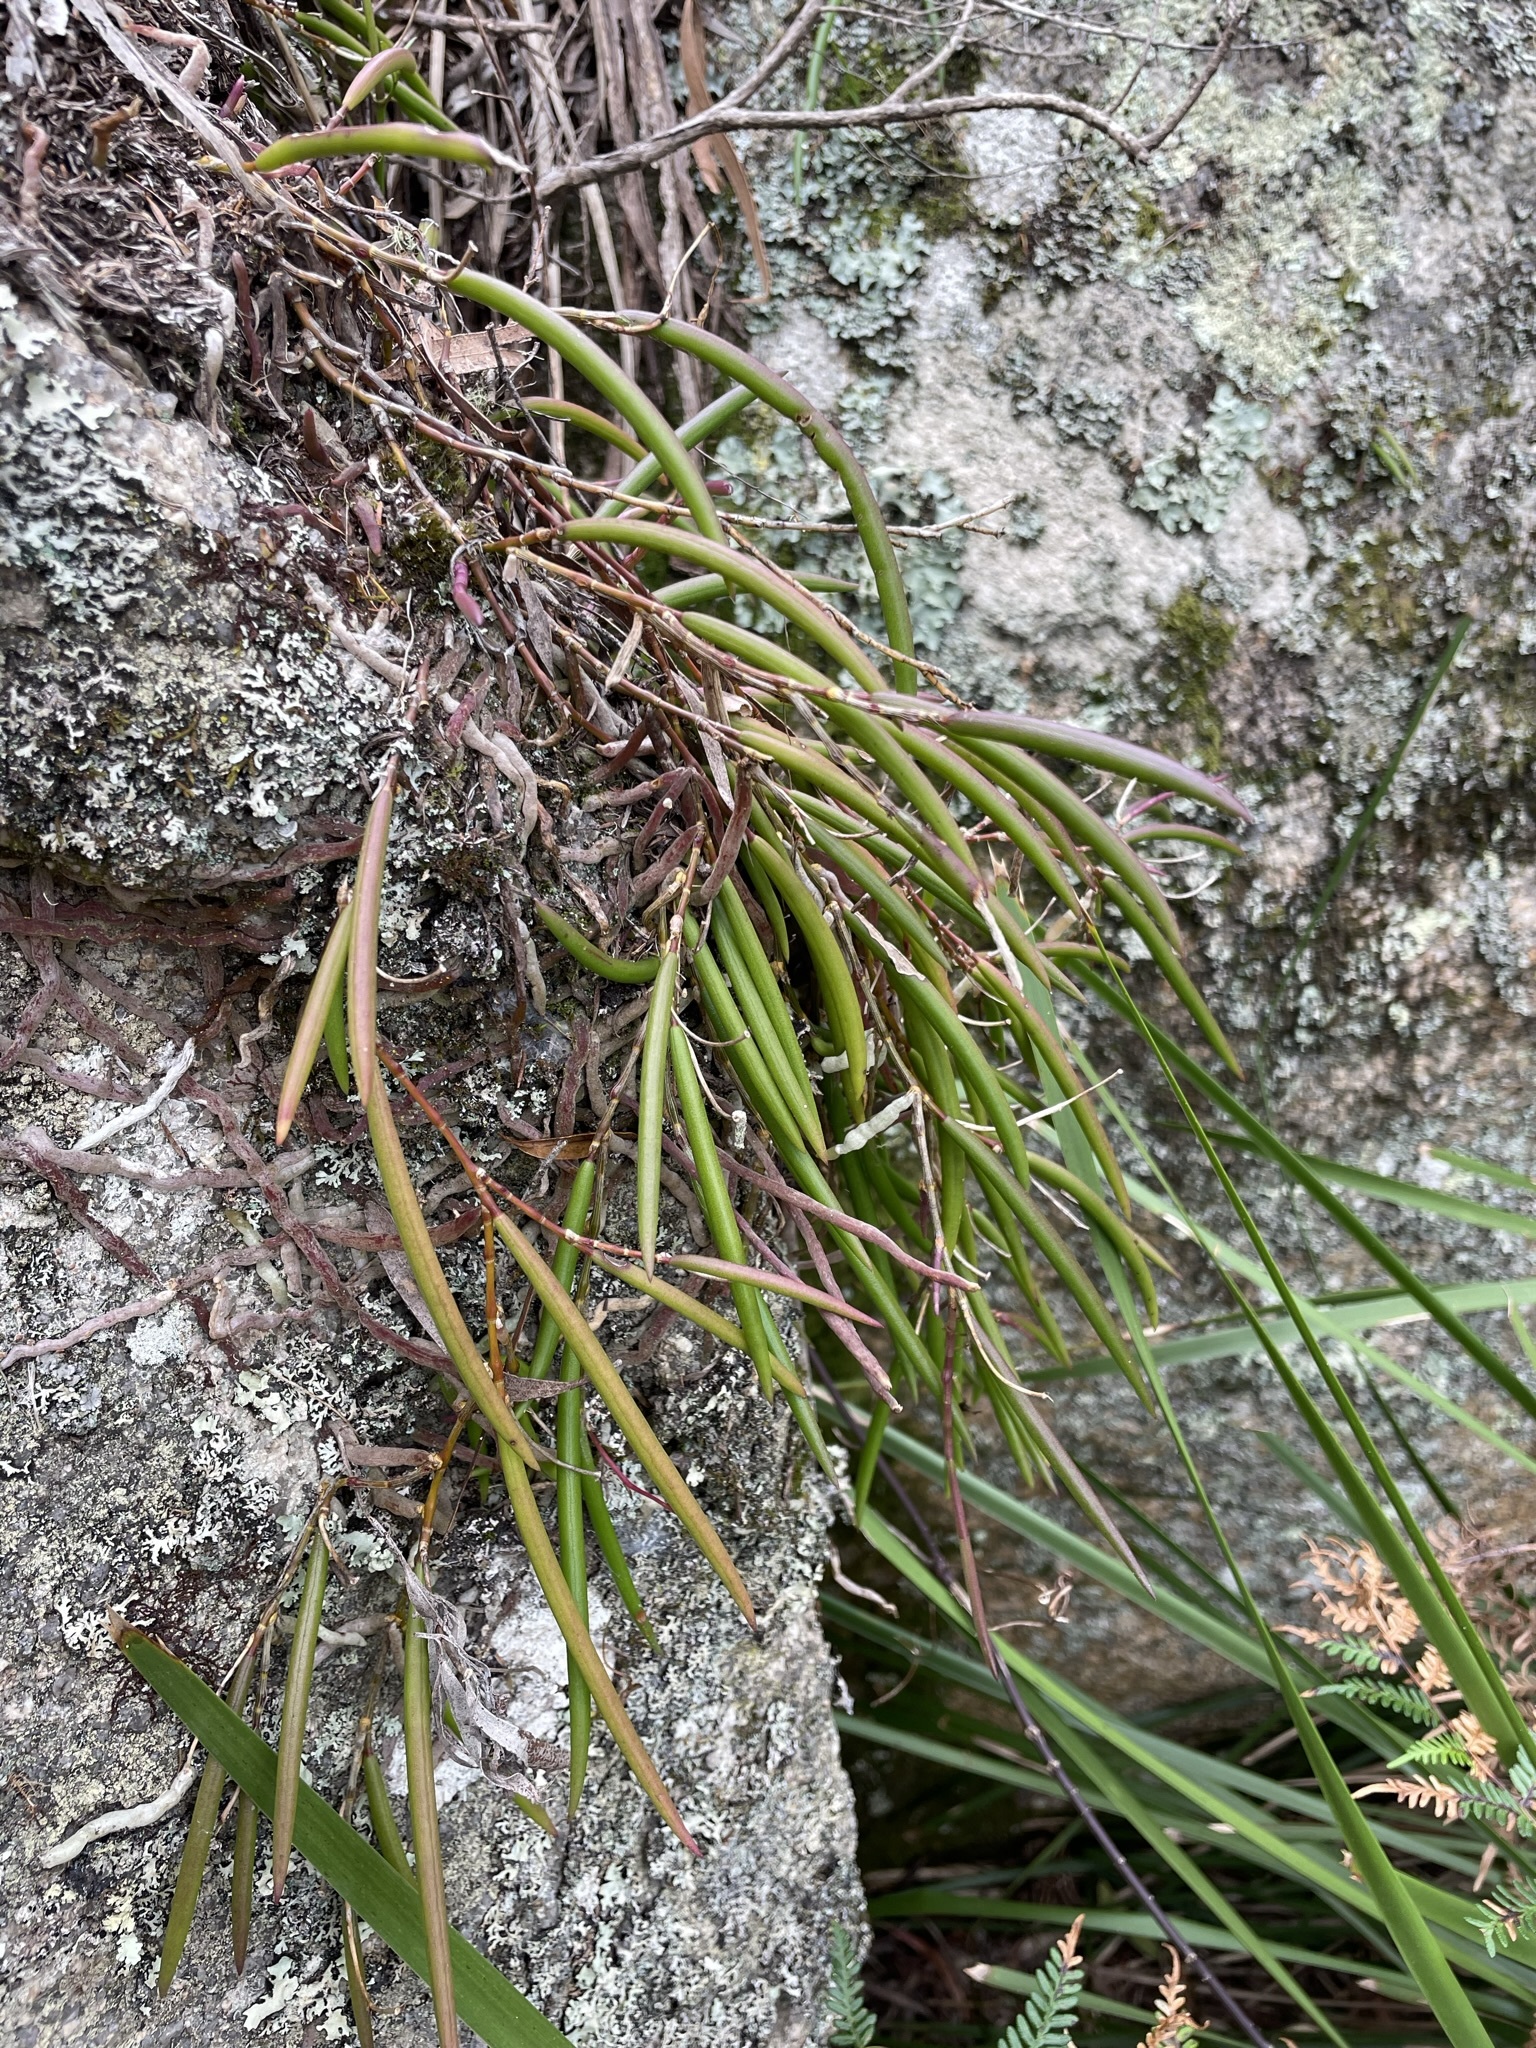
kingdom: Plantae
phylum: Tracheophyta
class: Liliopsida
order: Asparagales
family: Orchidaceae
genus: Dendrobium
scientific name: Dendrobium striolatum
